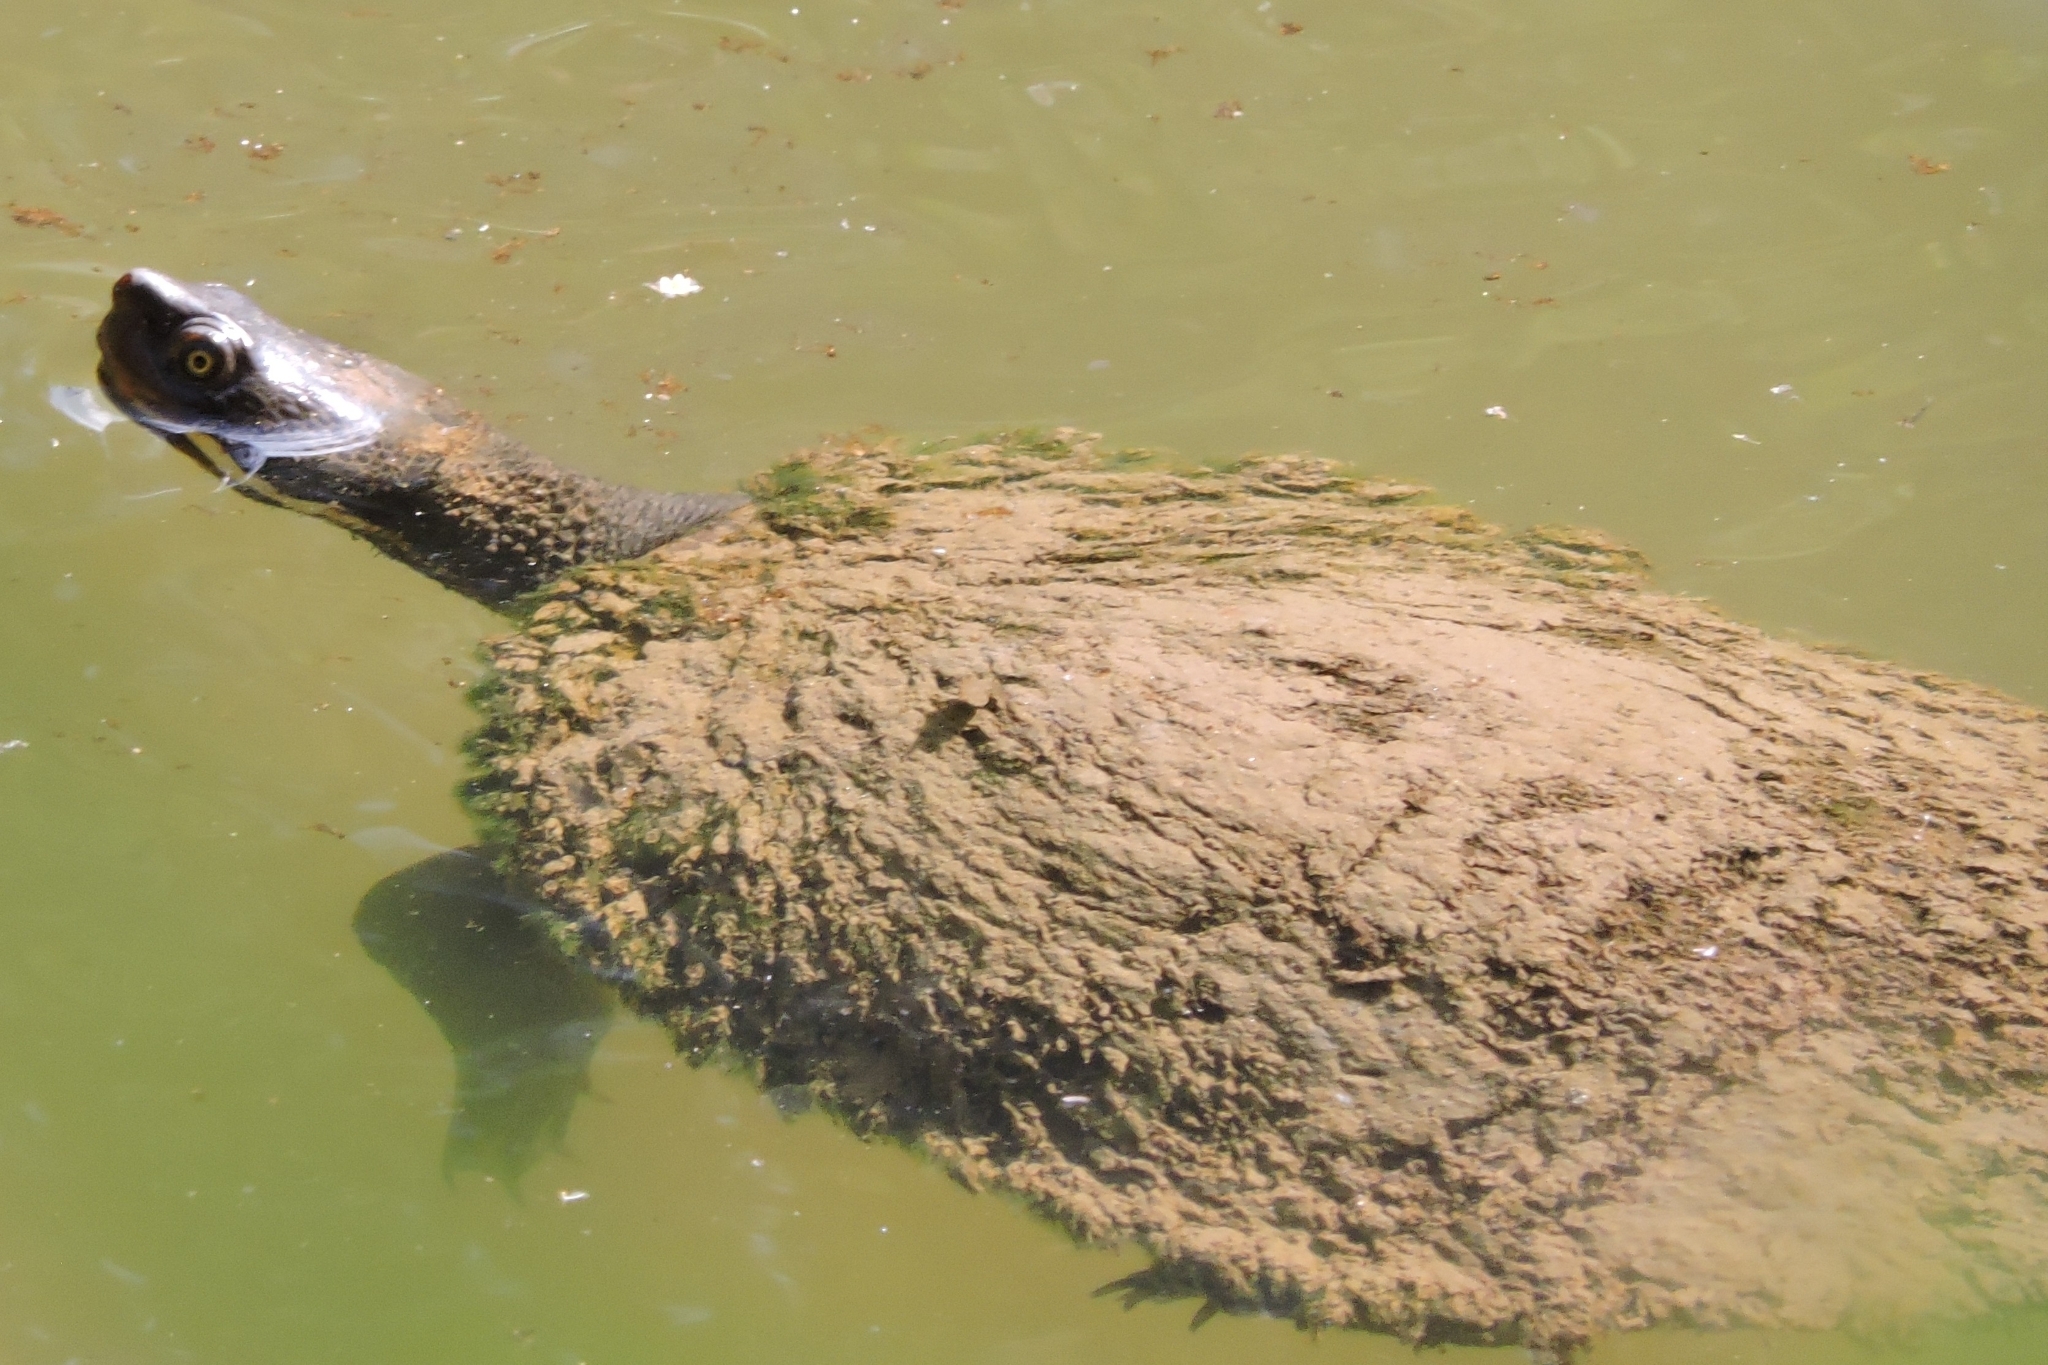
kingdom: Animalia
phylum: Chordata
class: Testudines
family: Chelidae
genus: Emydura
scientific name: Emydura macquarii
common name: Murray river turtle
